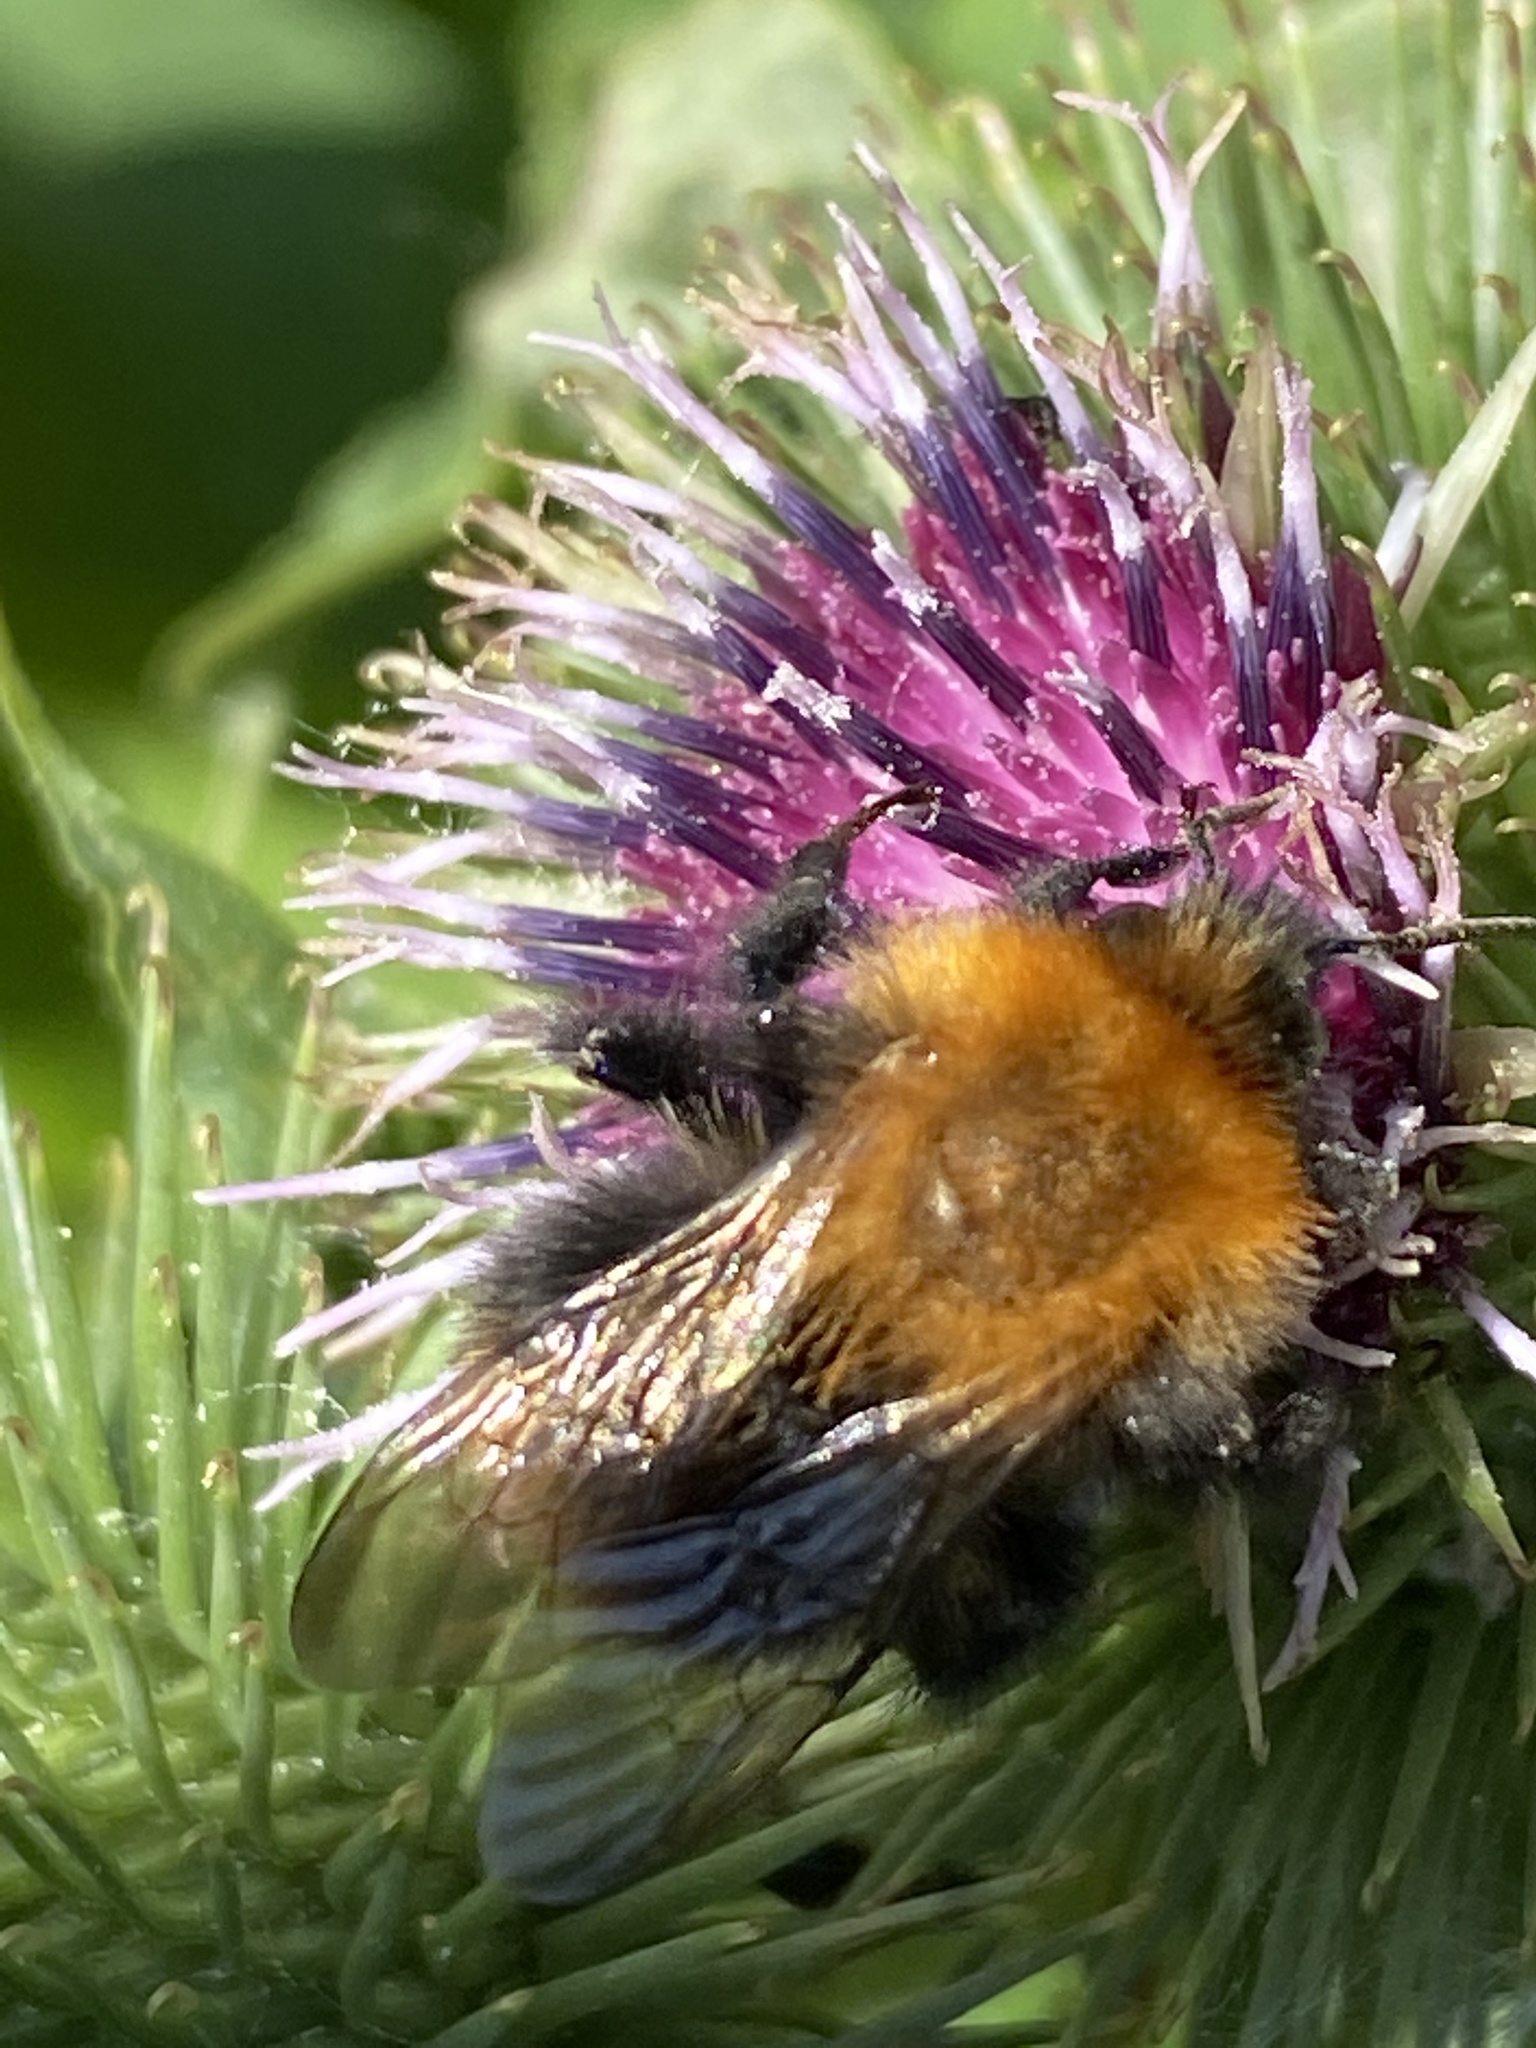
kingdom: Animalia
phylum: Arthropoda
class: Insecta
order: Hymenoptera
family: Apidae
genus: Bombus
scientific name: Bombus pascuorum
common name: Common carder bee
